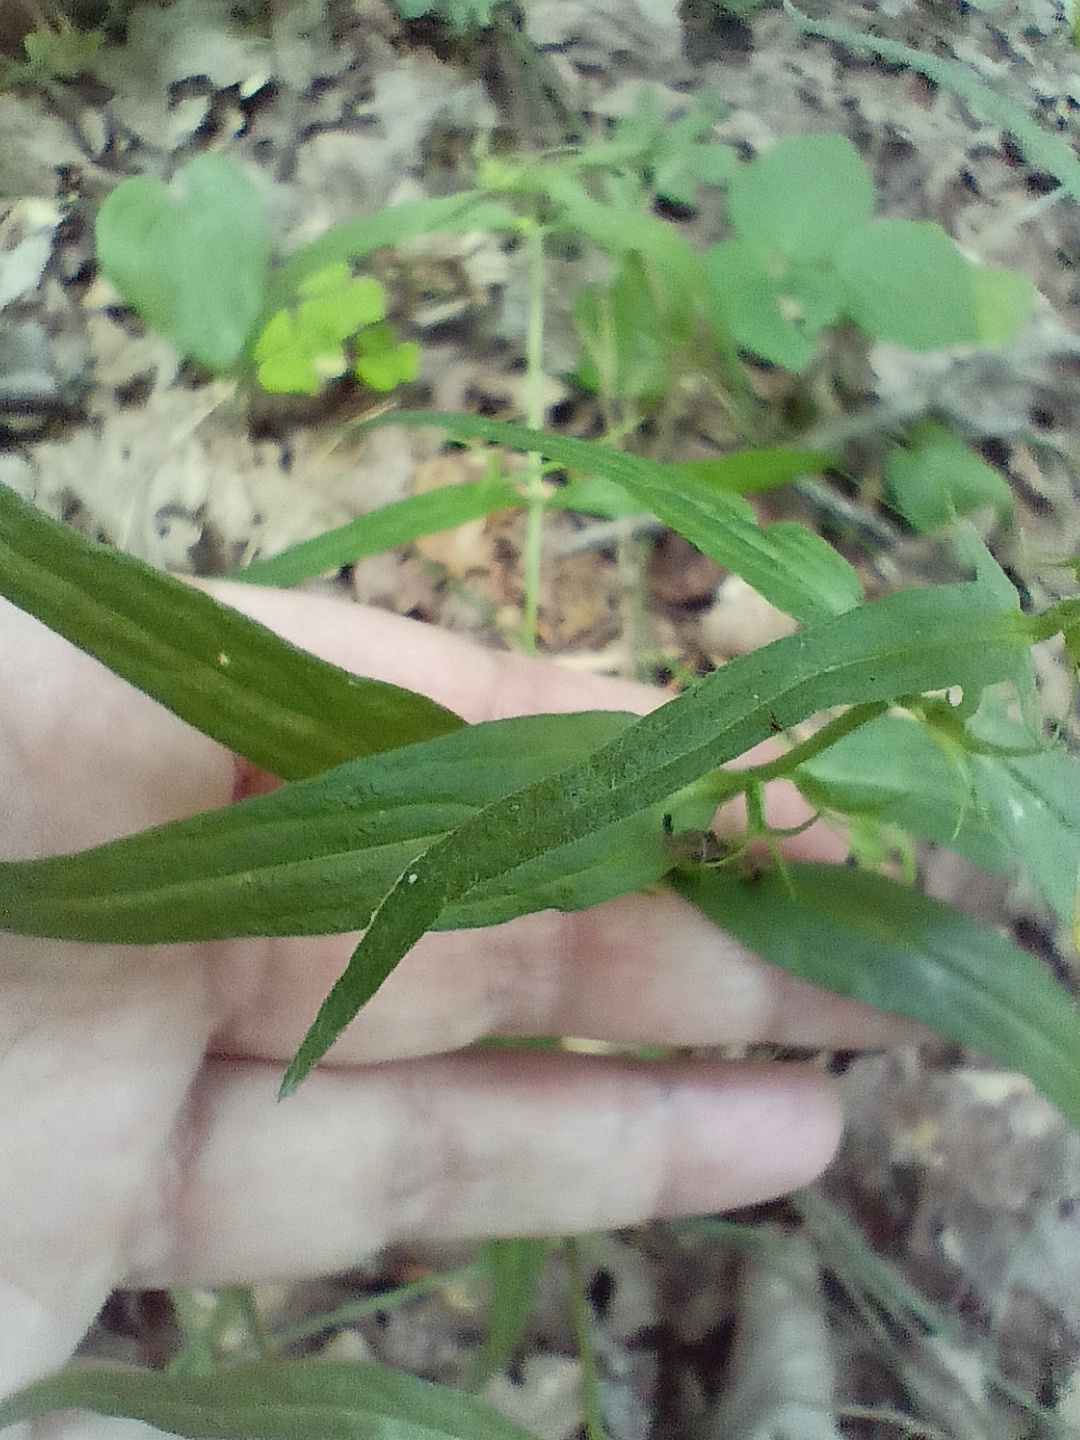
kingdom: Plantae
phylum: Tracheophyta
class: Magnoliopsida
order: Lamiales
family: Orobanchaceae
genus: Melampyrum
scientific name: Melampyrum pratense
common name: Common cow-wheat
